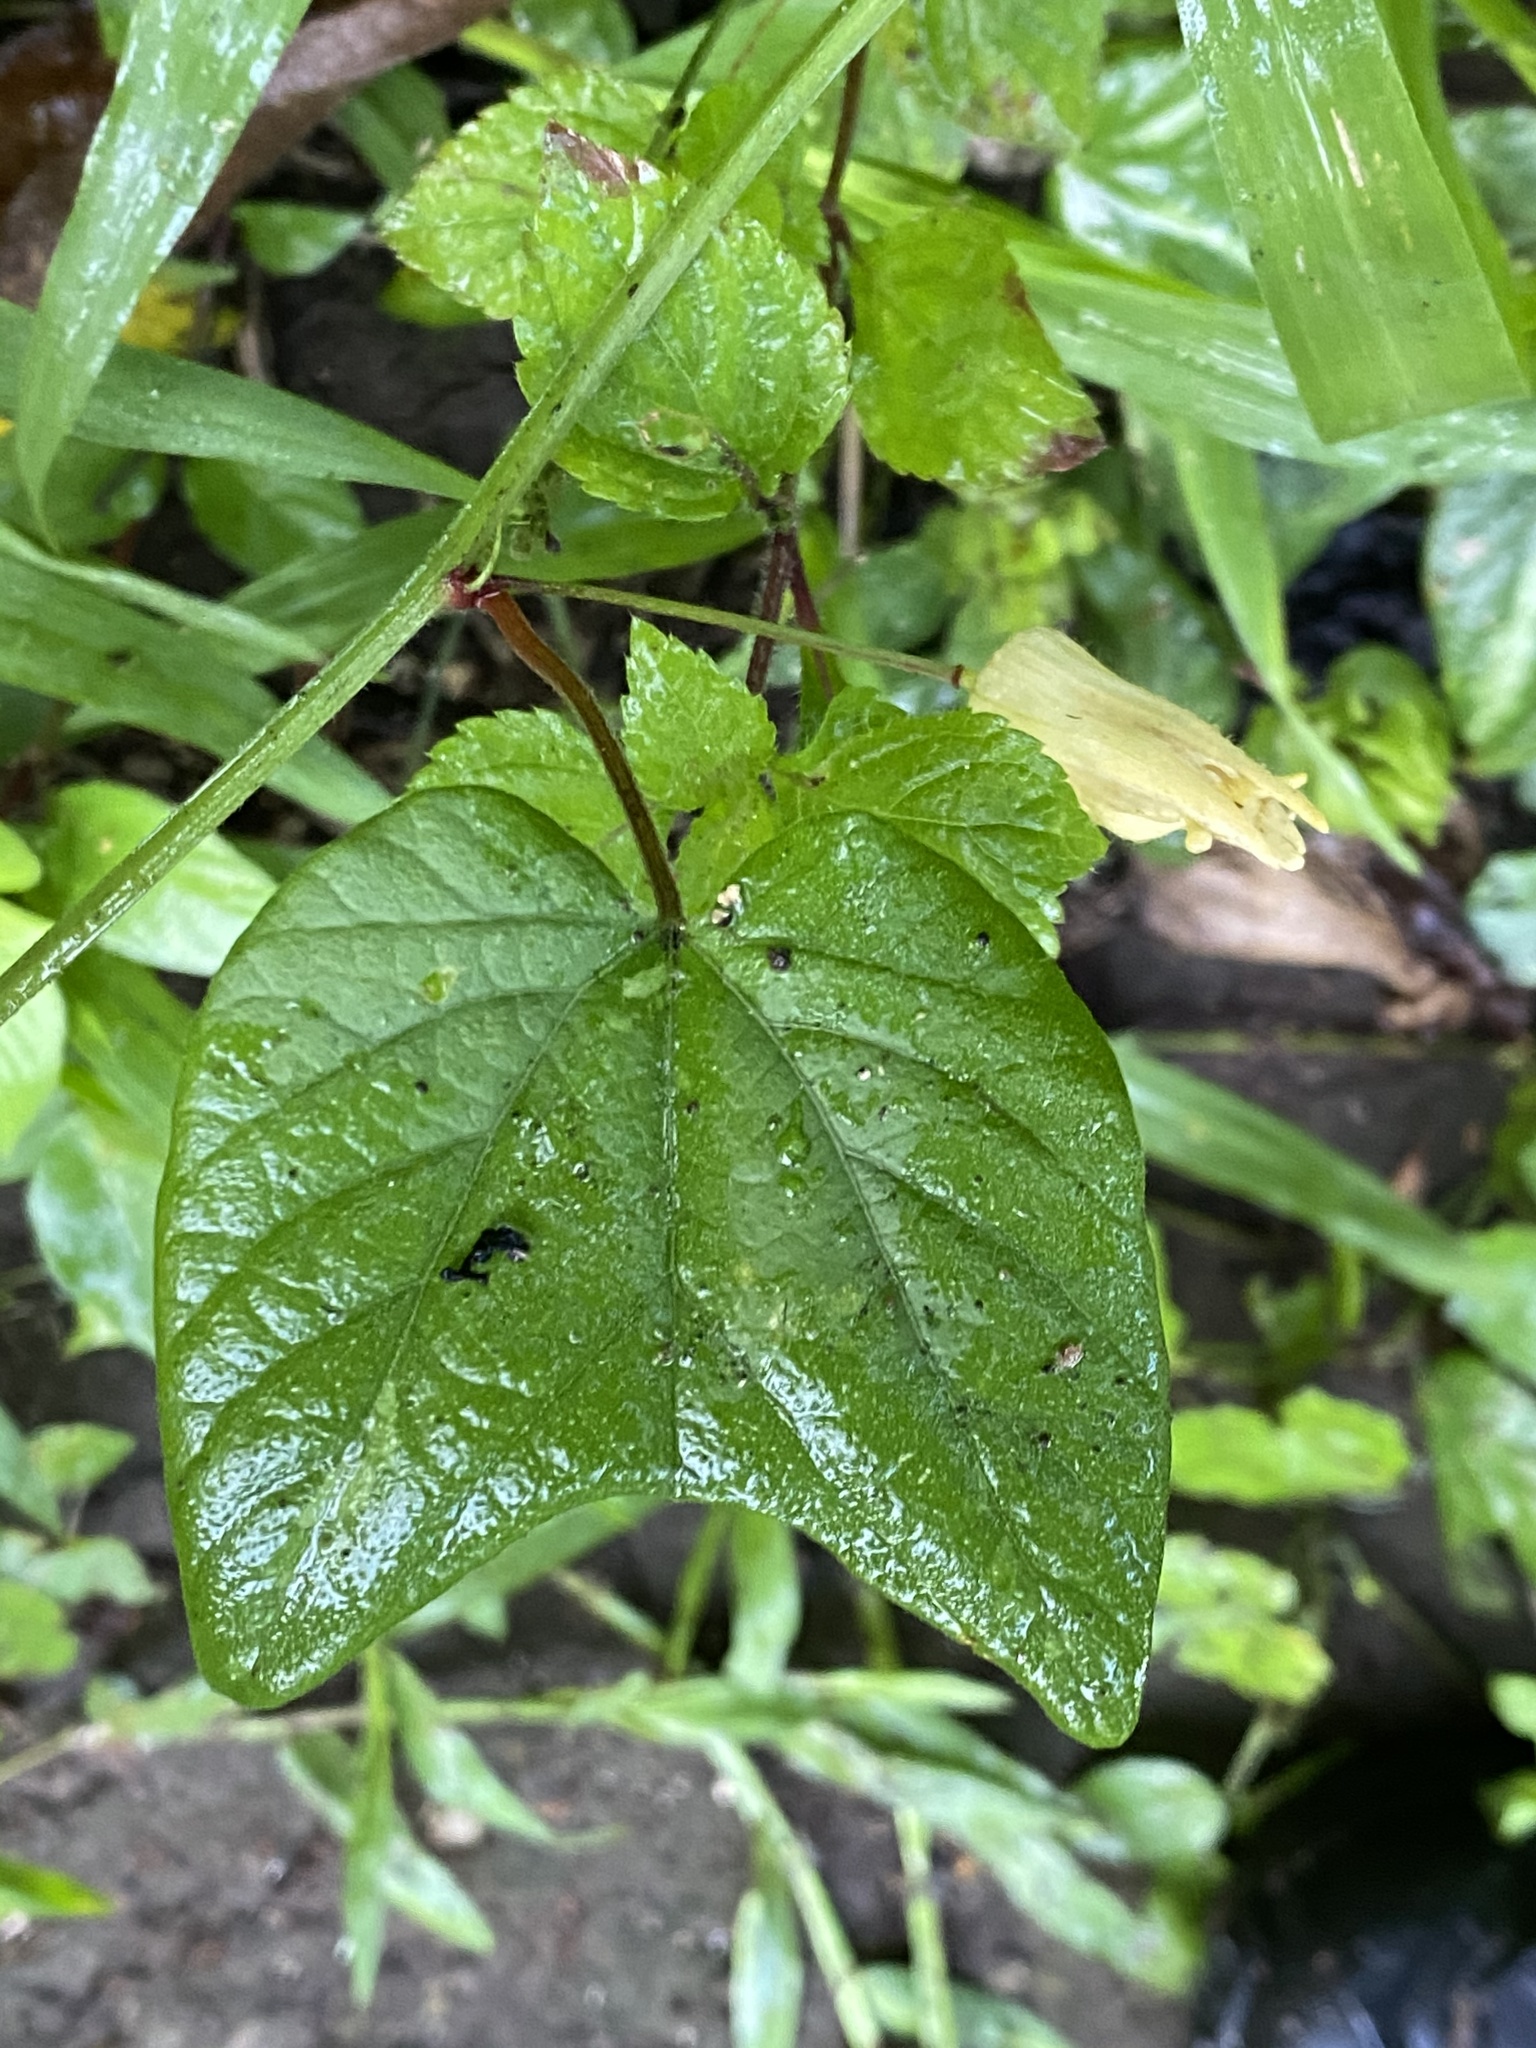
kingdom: Plantae
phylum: Tracheophyta
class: Magnoliopsida
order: Malpighiales
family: Passifloraceae
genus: Passiflora
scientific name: Passiflora capsularis
